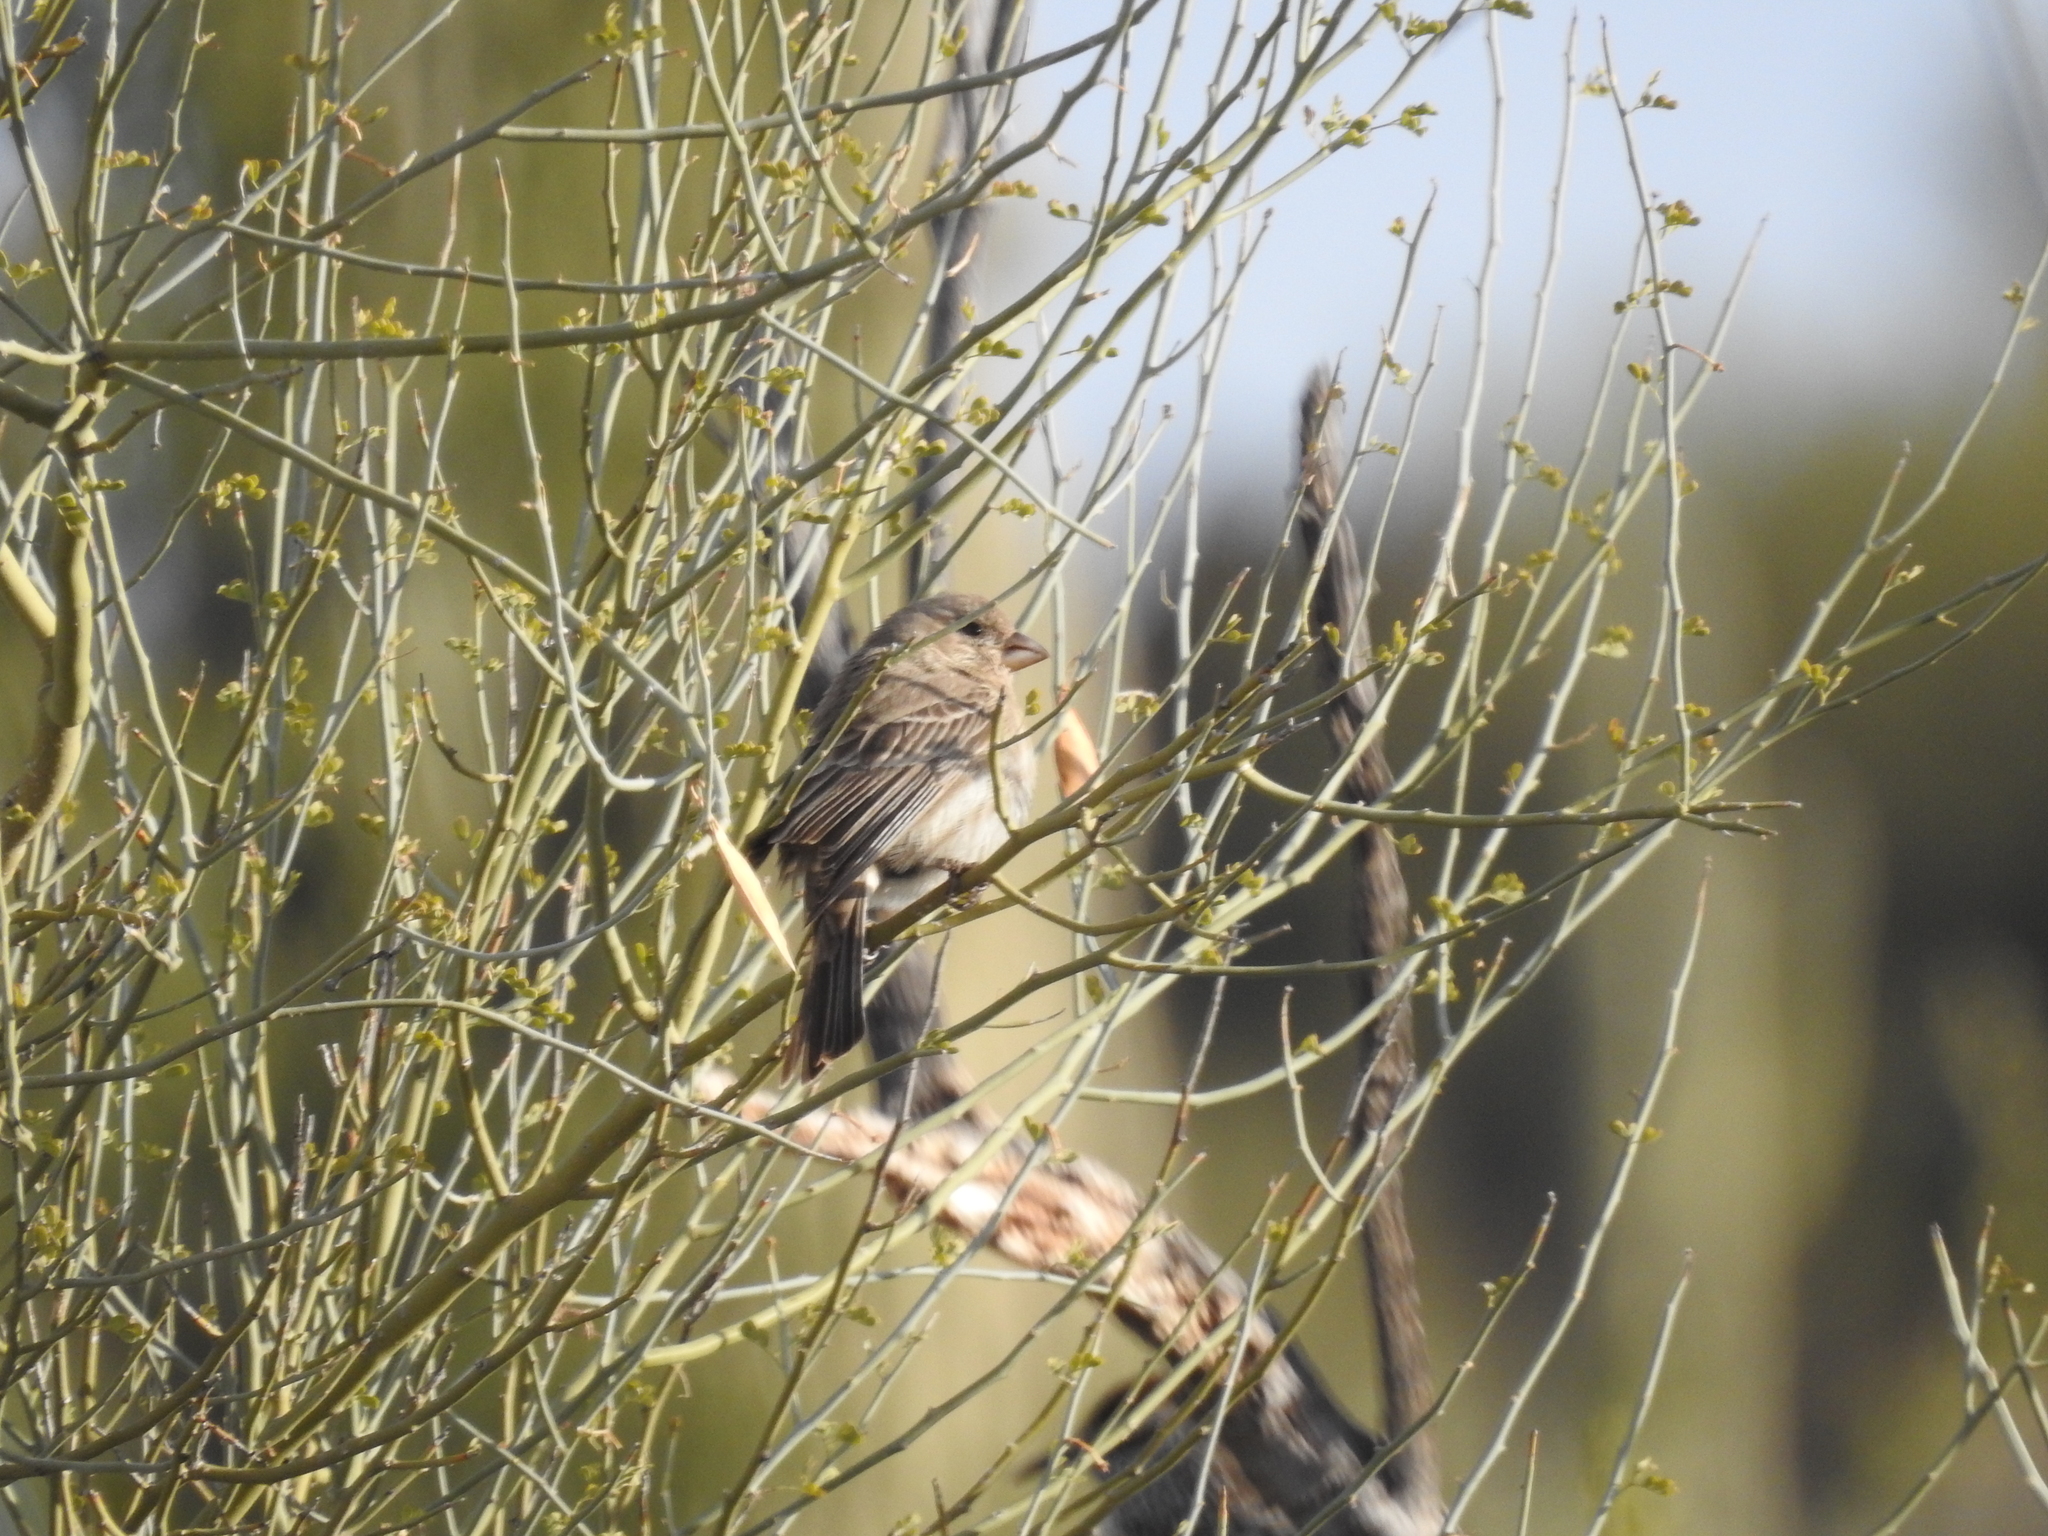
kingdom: Animalia
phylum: Chordata
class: Aves
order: Passeriformes
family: Fringillidae
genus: Haemorhous
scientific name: Haemorhous mexicanus
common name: House finch
